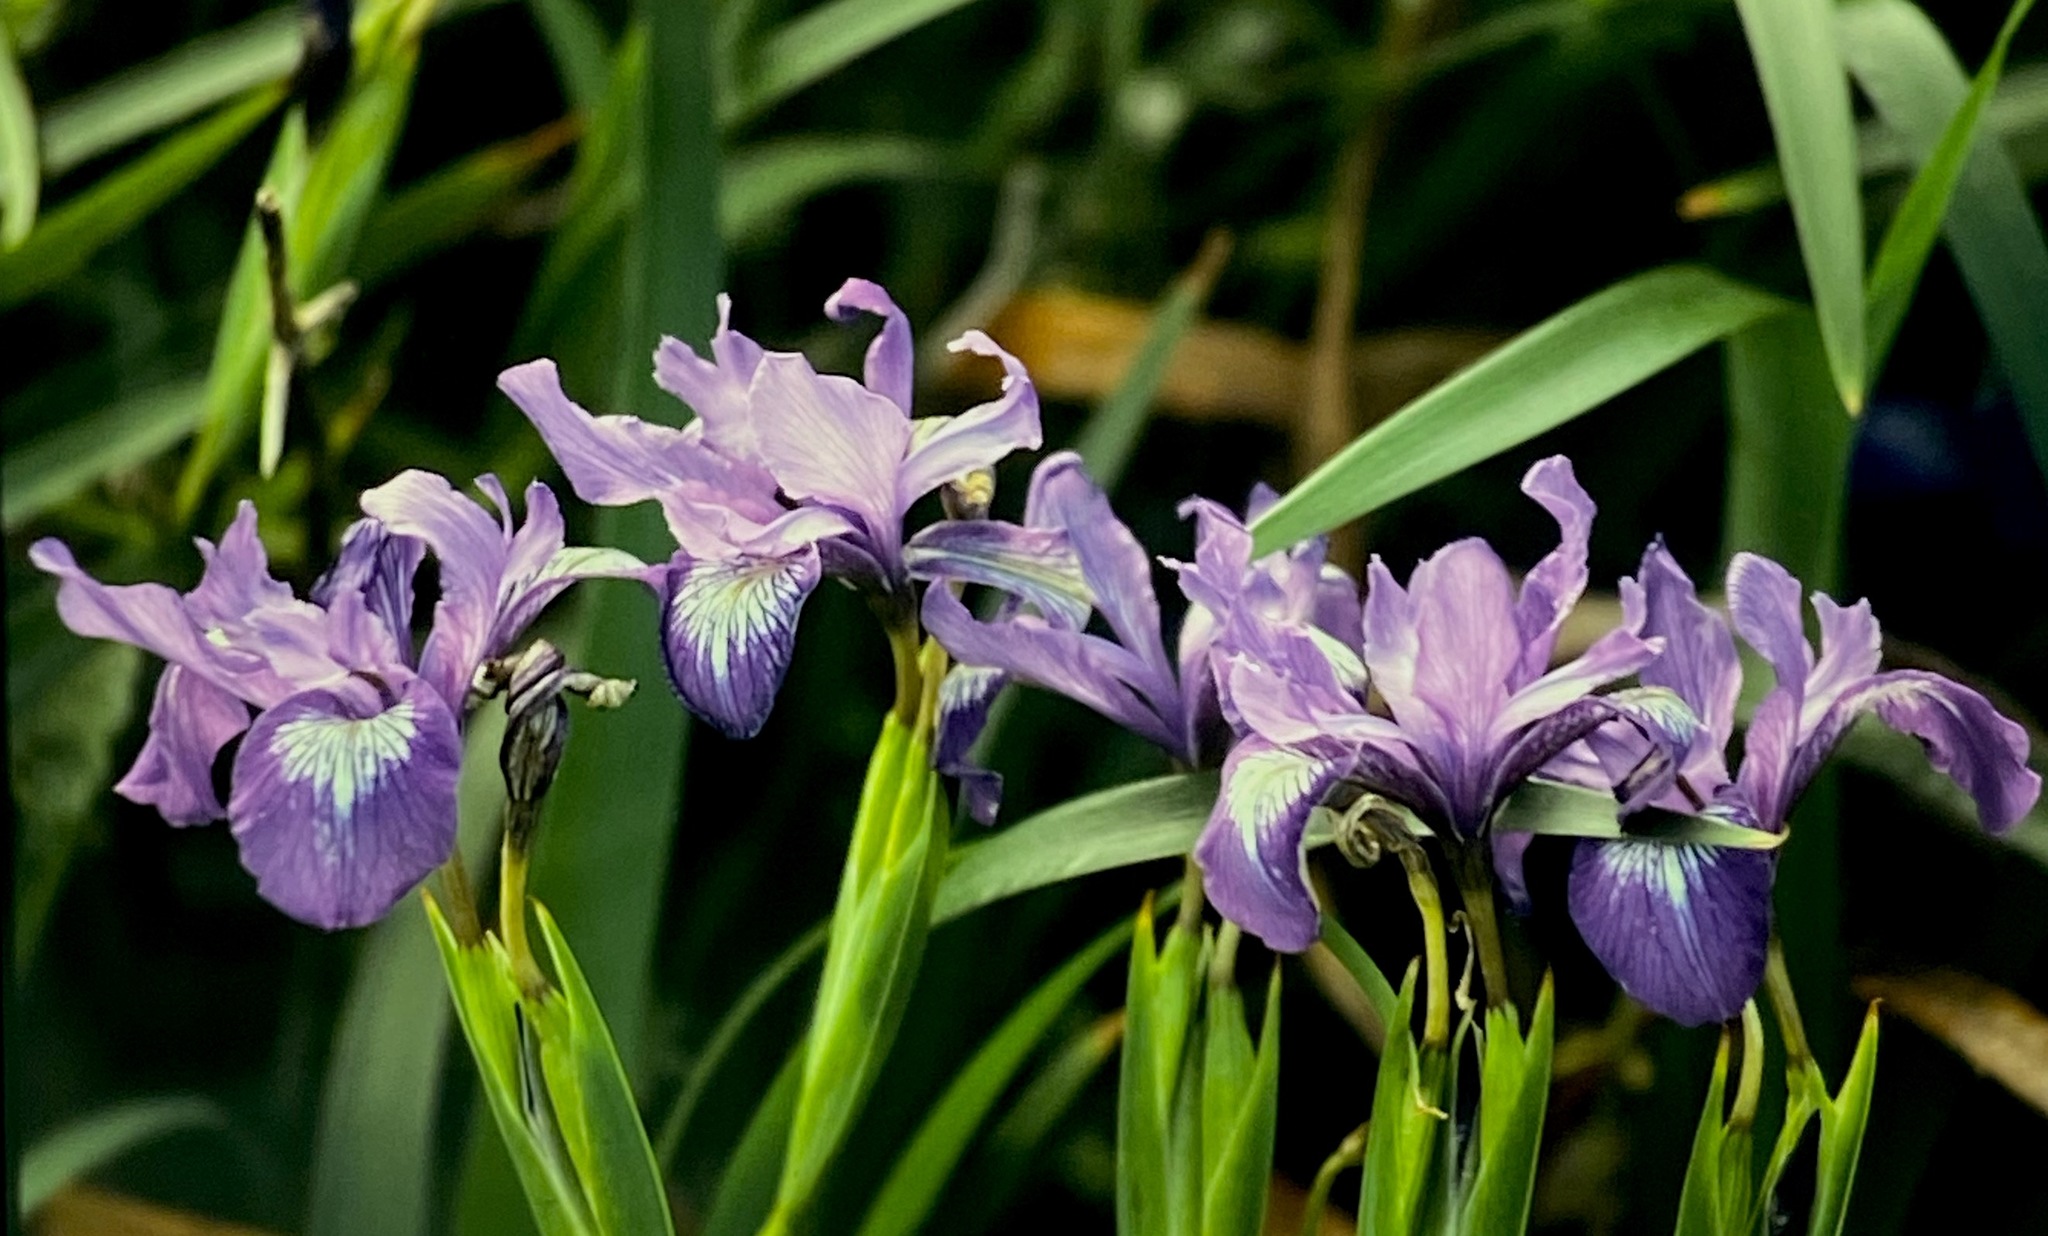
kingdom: Plantae
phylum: Tracheophyta
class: Liliopsida
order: Asparagales
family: Iridaceae
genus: Iris
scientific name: Iris douglasiana
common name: Marin iris
